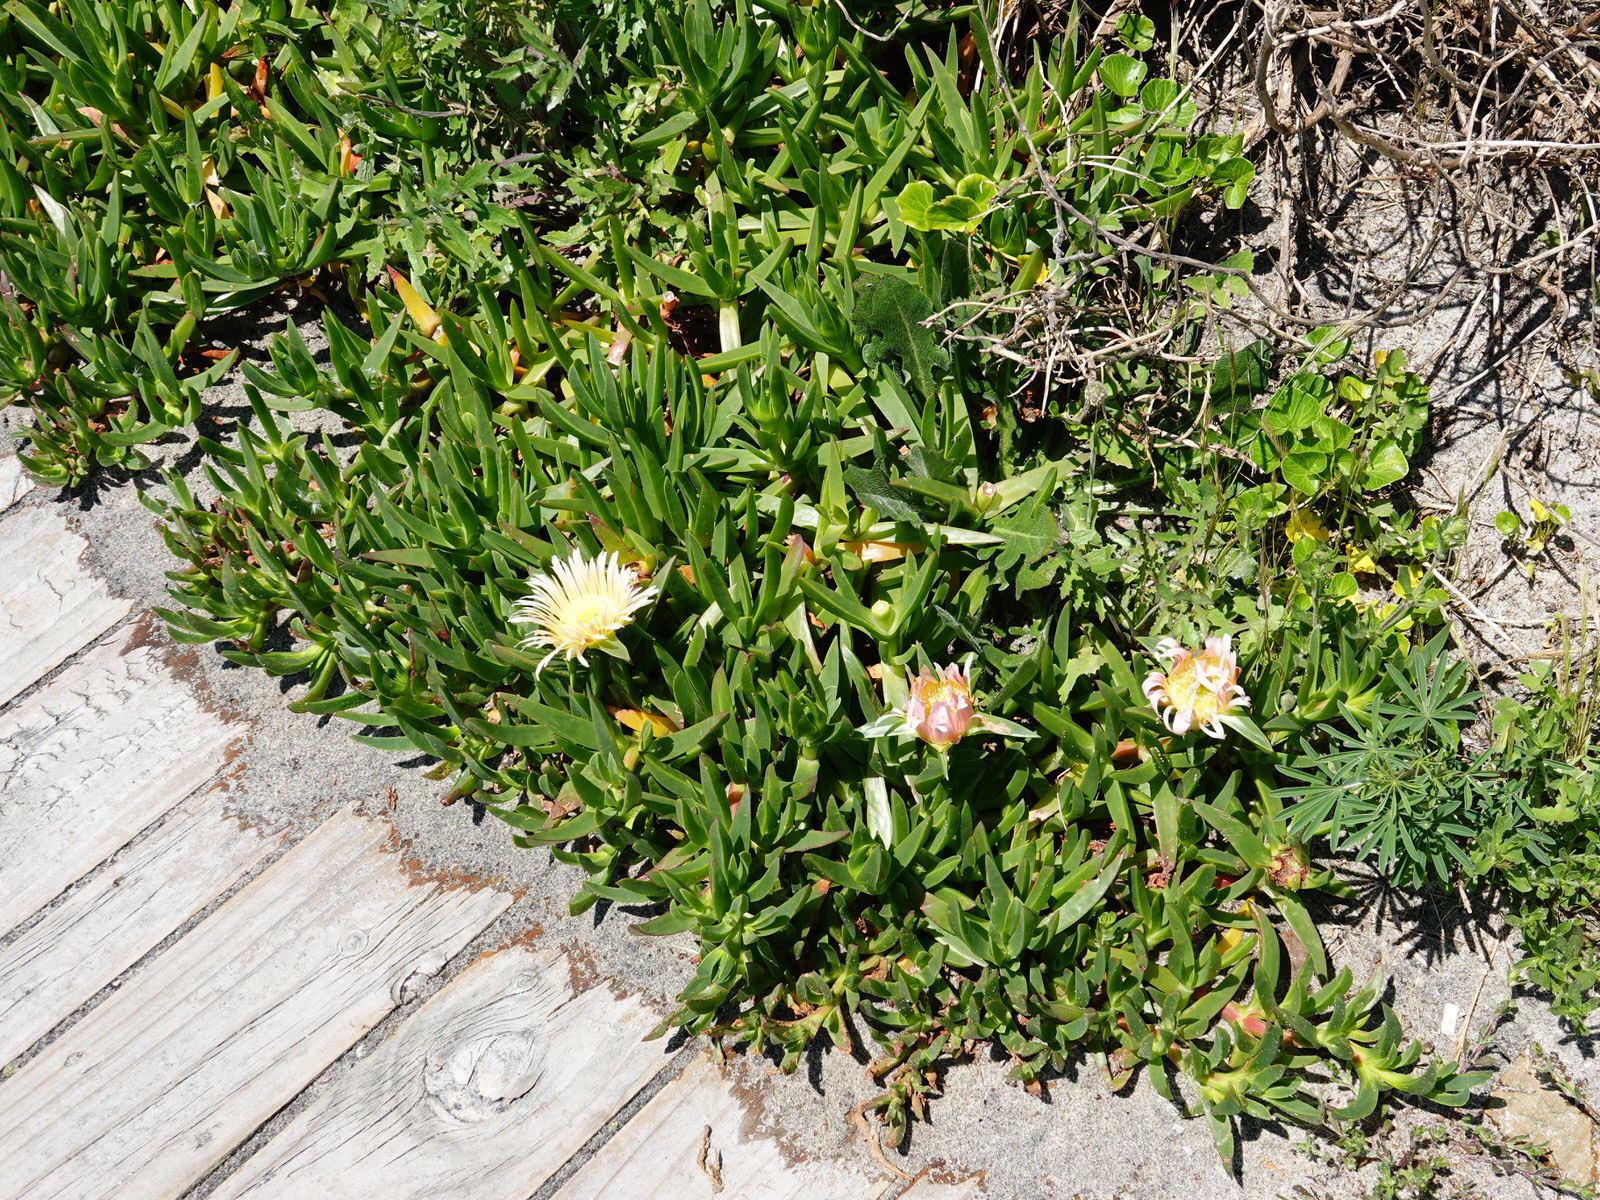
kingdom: Plantae
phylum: Tracheophyta
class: Magnoliopsida
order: Caryophyllales
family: Aizoaceae
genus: Carpobrotus
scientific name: Carpobrotus edulis
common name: Hottentot-fig
